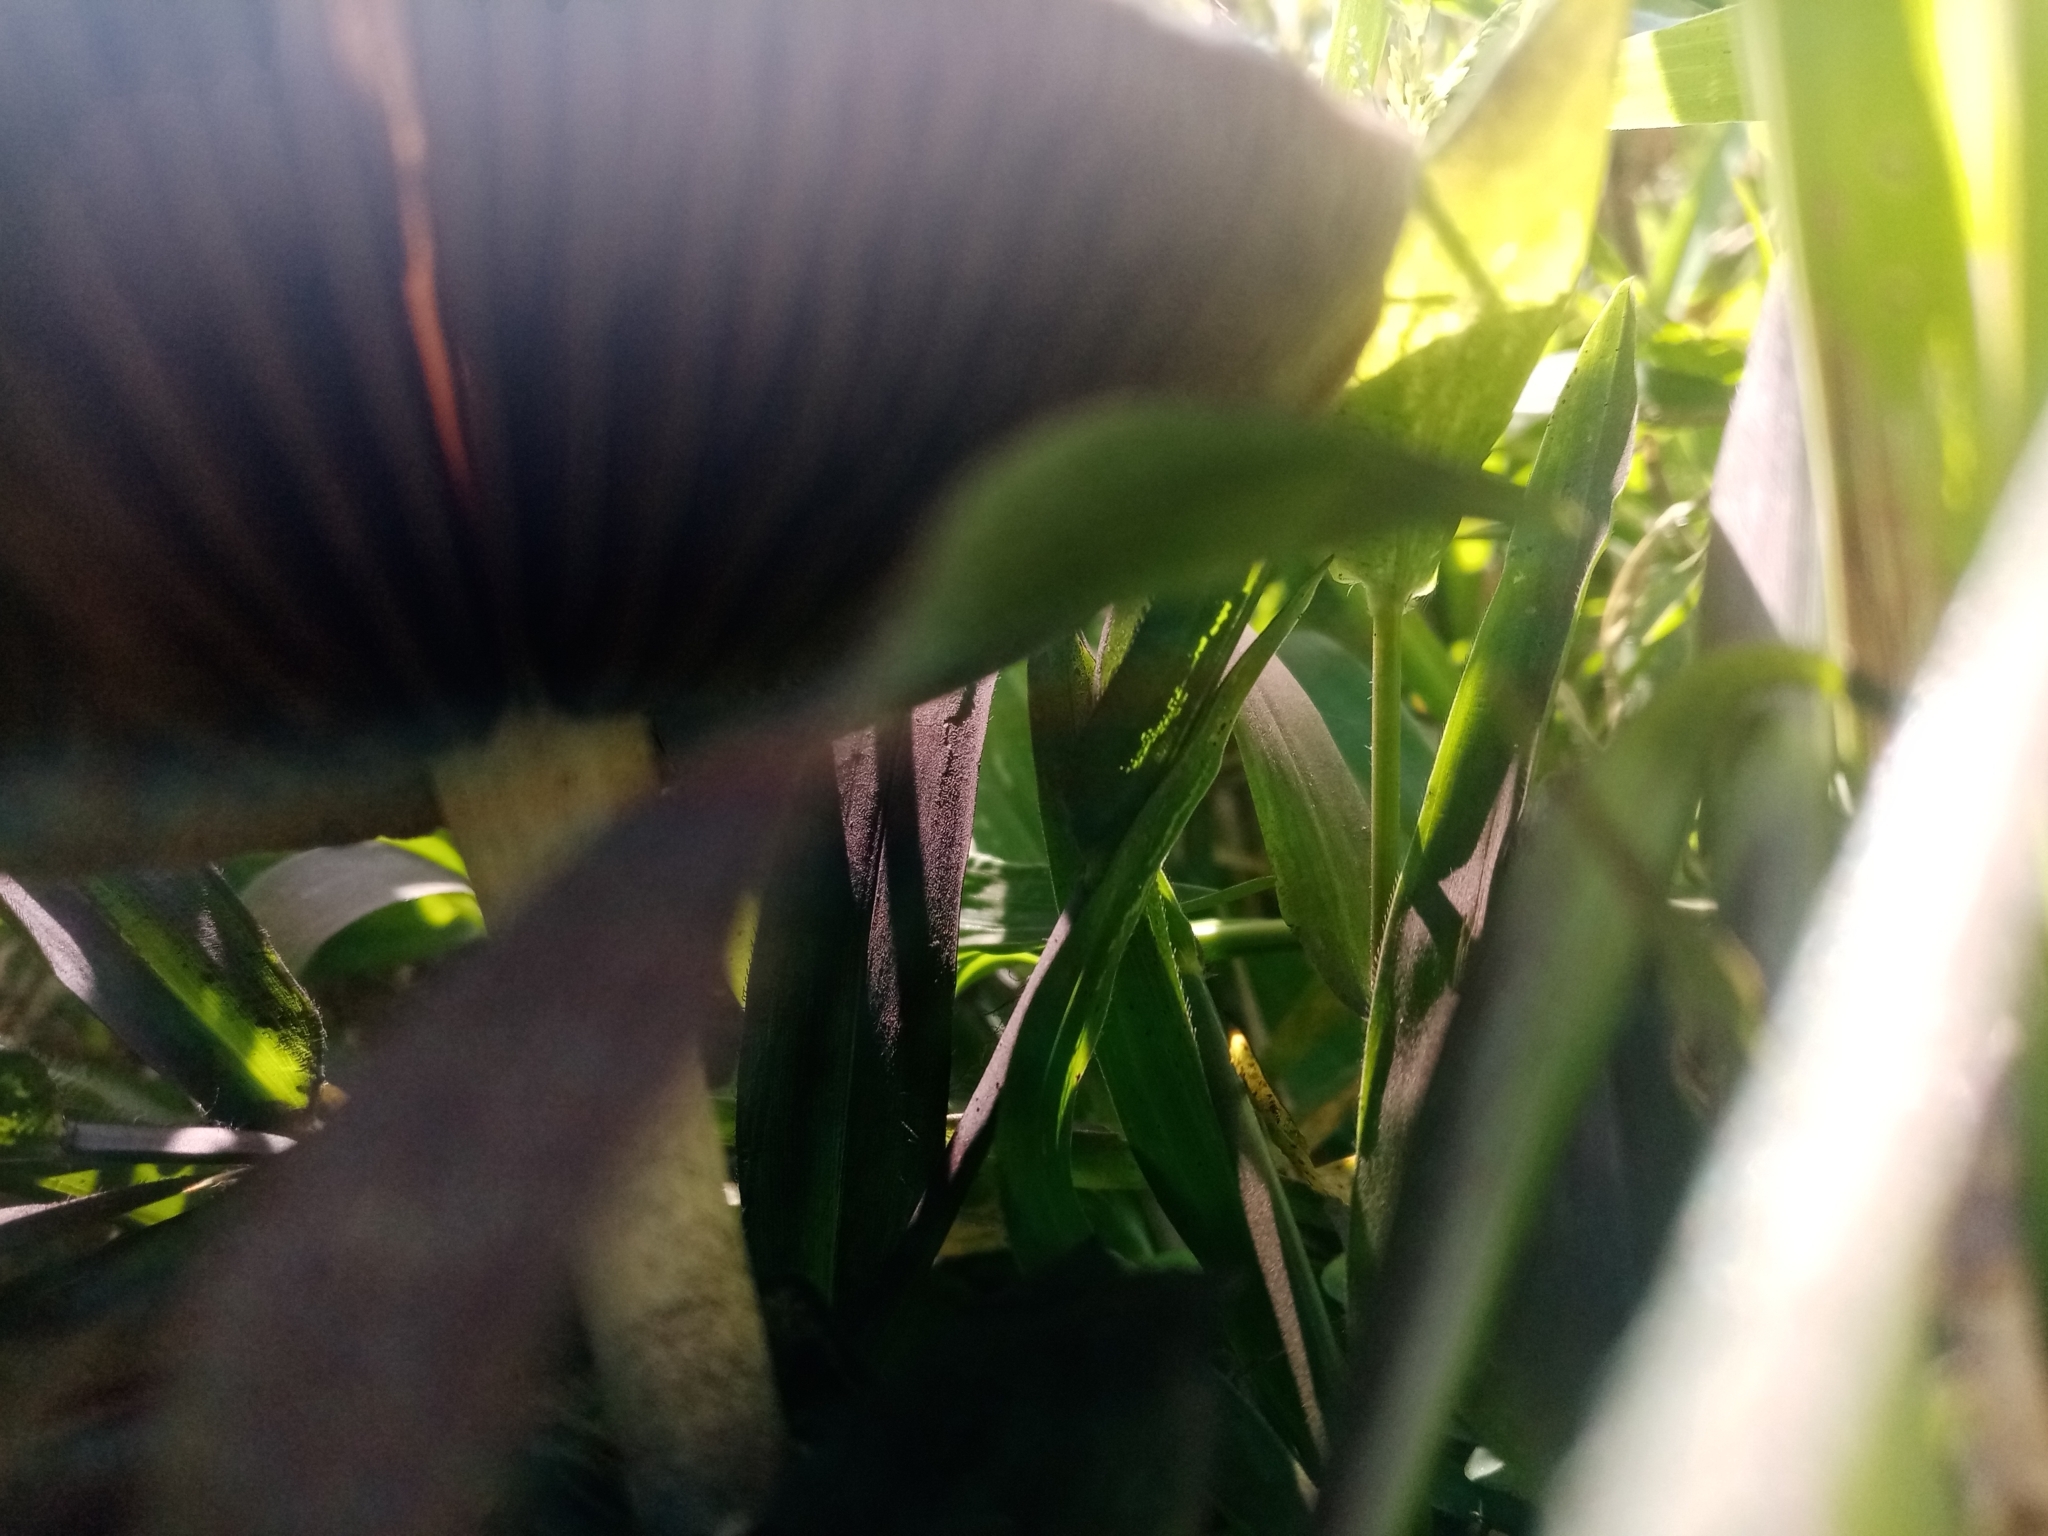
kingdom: Fungi
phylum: Basidiomycota
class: Agaricomycetes
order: Agaricales
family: Hymenogastraceae
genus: Psilocybe
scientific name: Psilocybe cubensis
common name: Golden brownie
